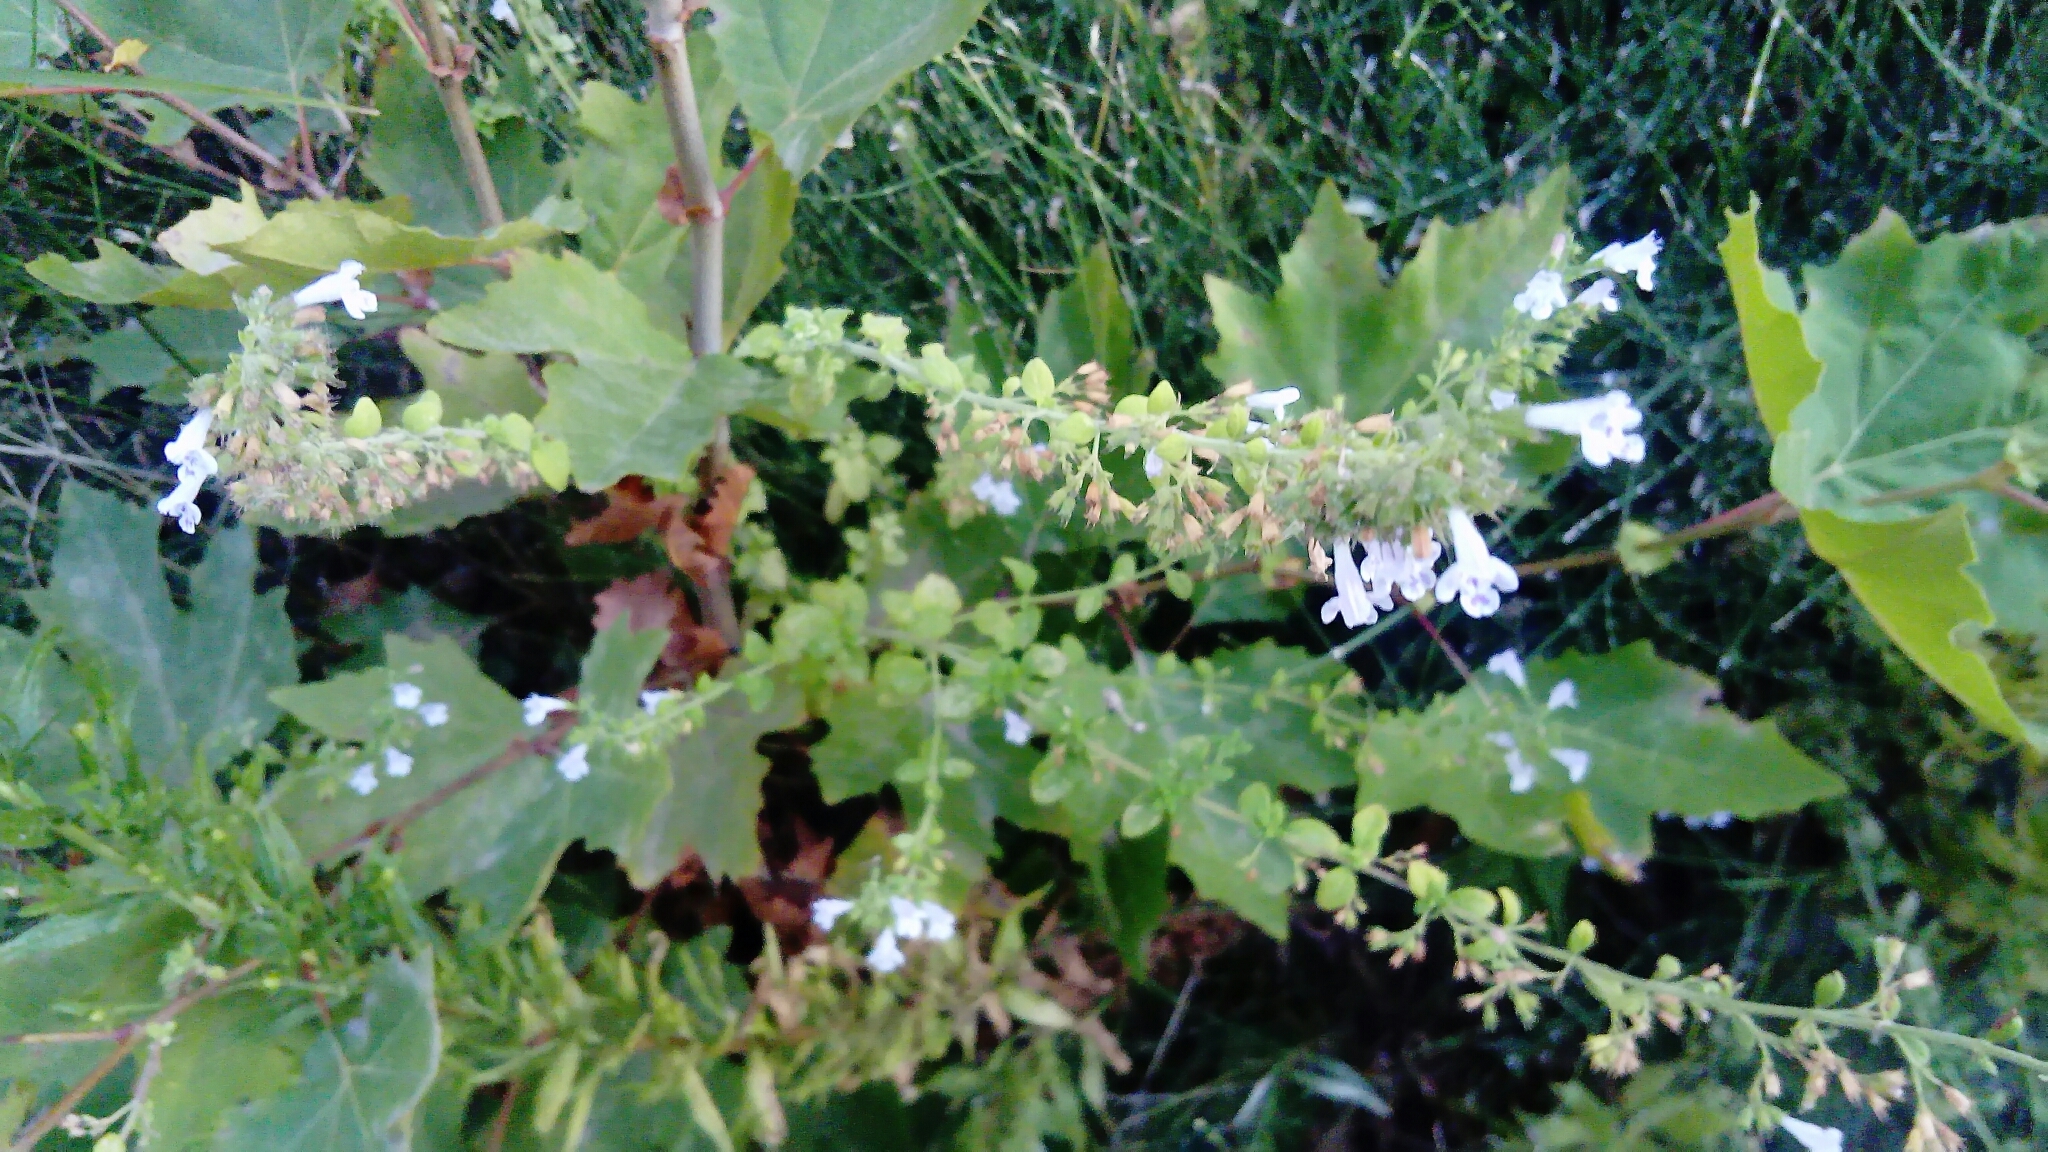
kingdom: Plantae
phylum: Tracheophyta
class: Magnoliopsida
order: Lamiales
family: Lamiaceae
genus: Clinopodium
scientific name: Clinopodium nepeta
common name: Lesser calamint
